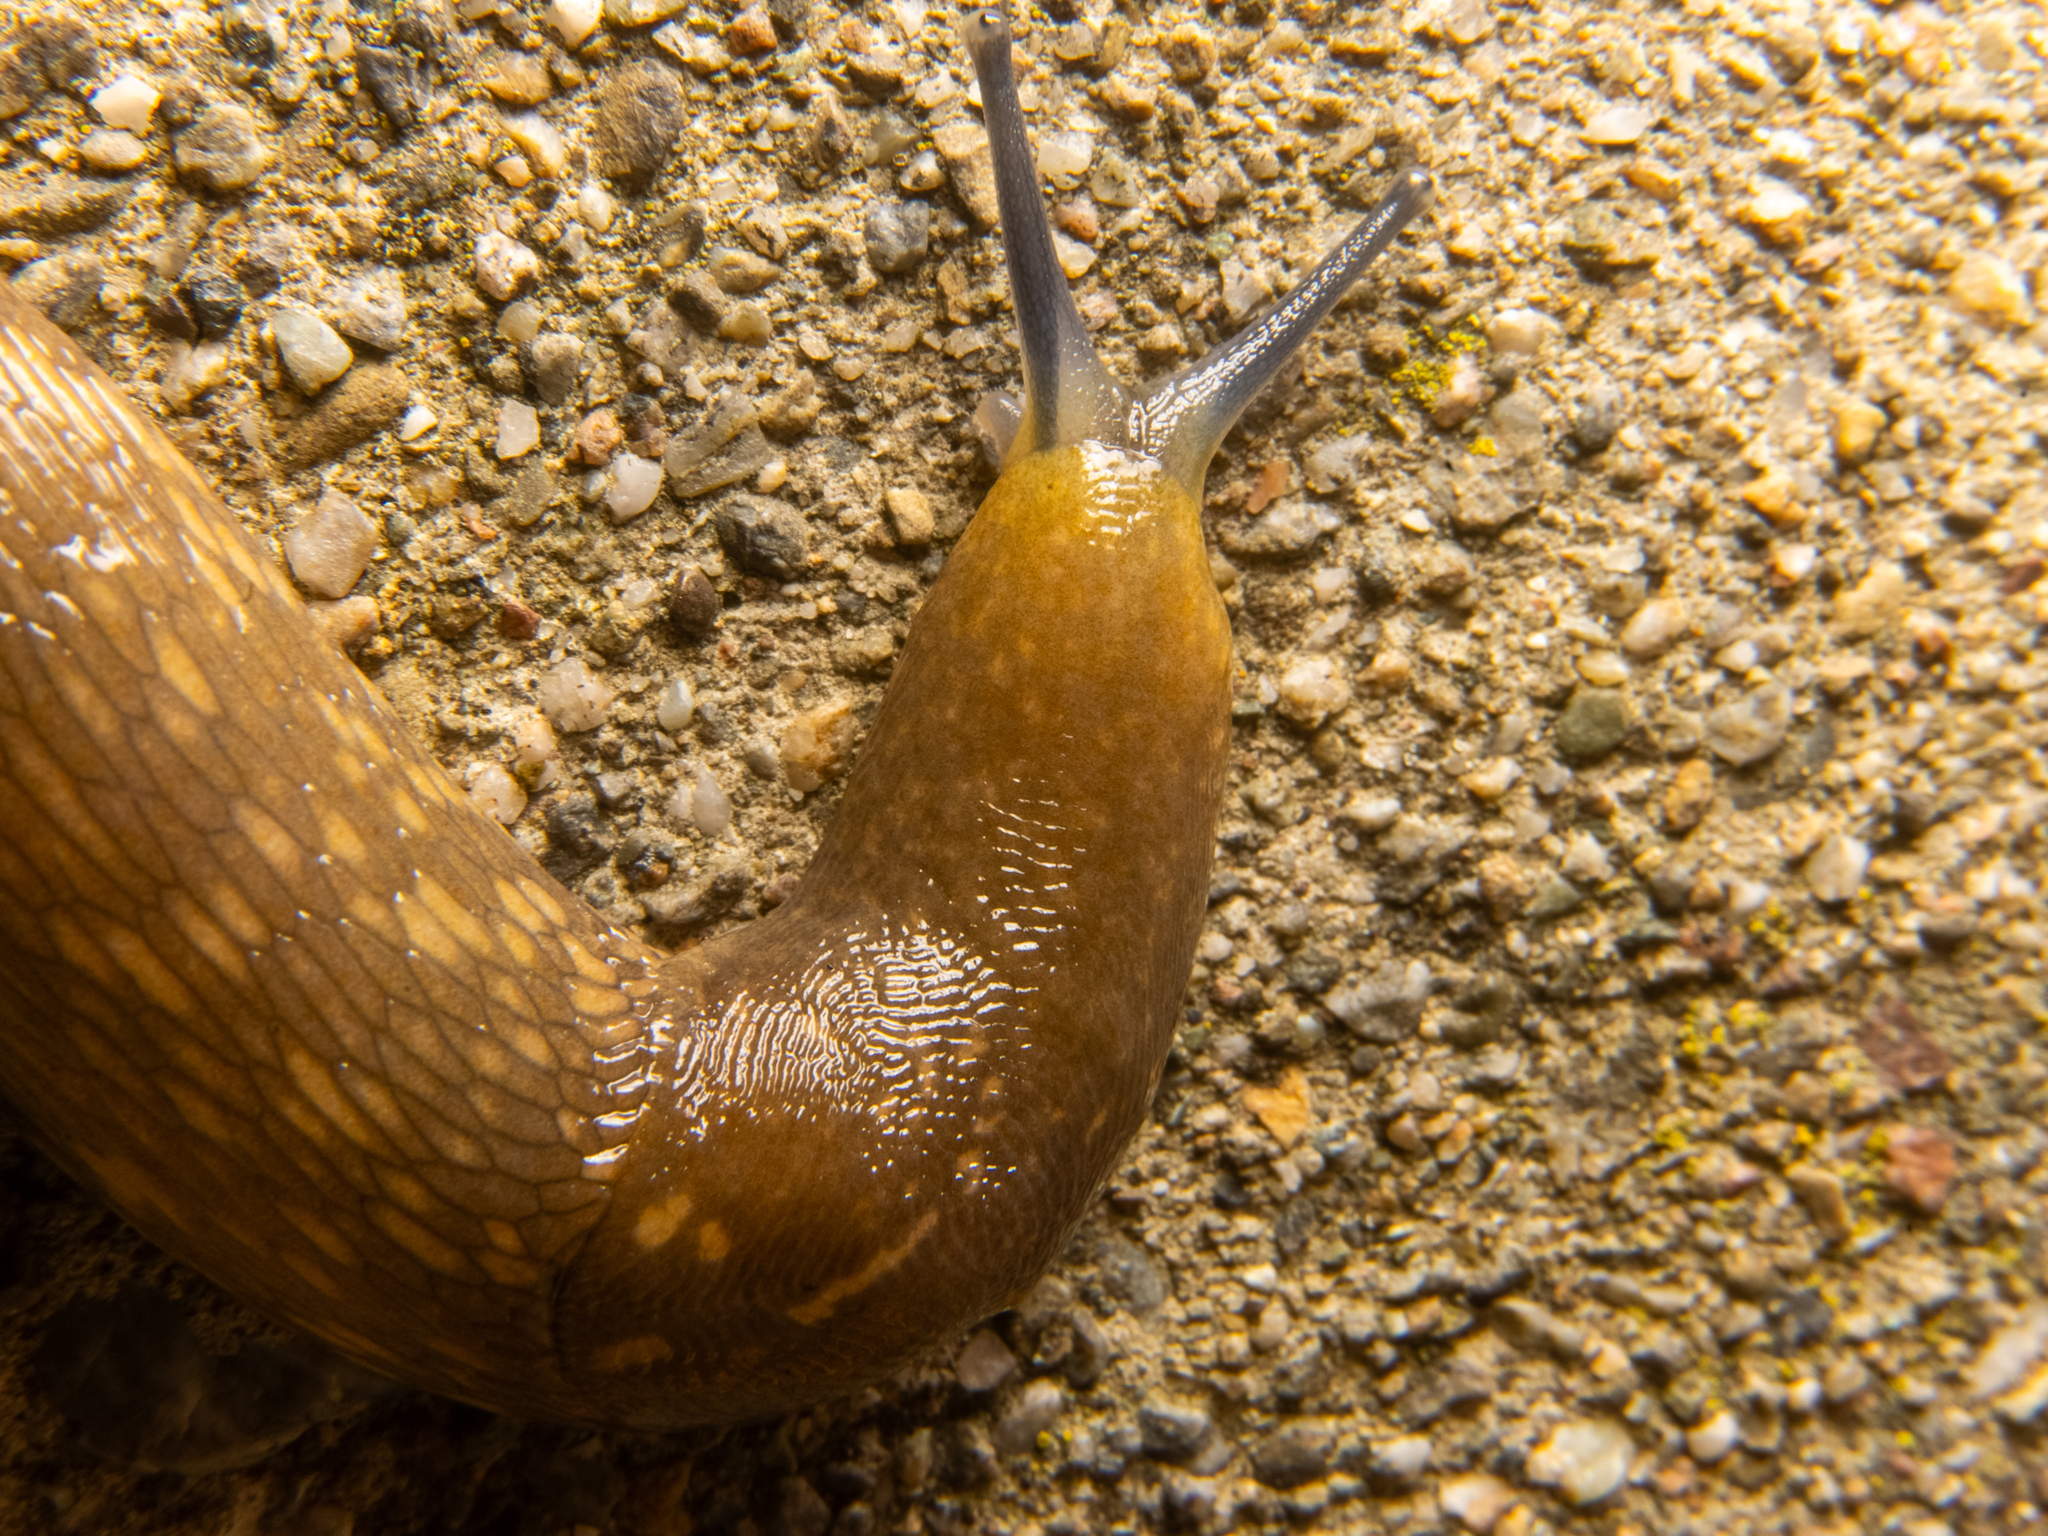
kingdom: Animalia
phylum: Mollusca
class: Gastropoda
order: Stylommatophora
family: Limacidae
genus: Limacus
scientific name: Limacus flavus
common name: Yellow gardenslug
